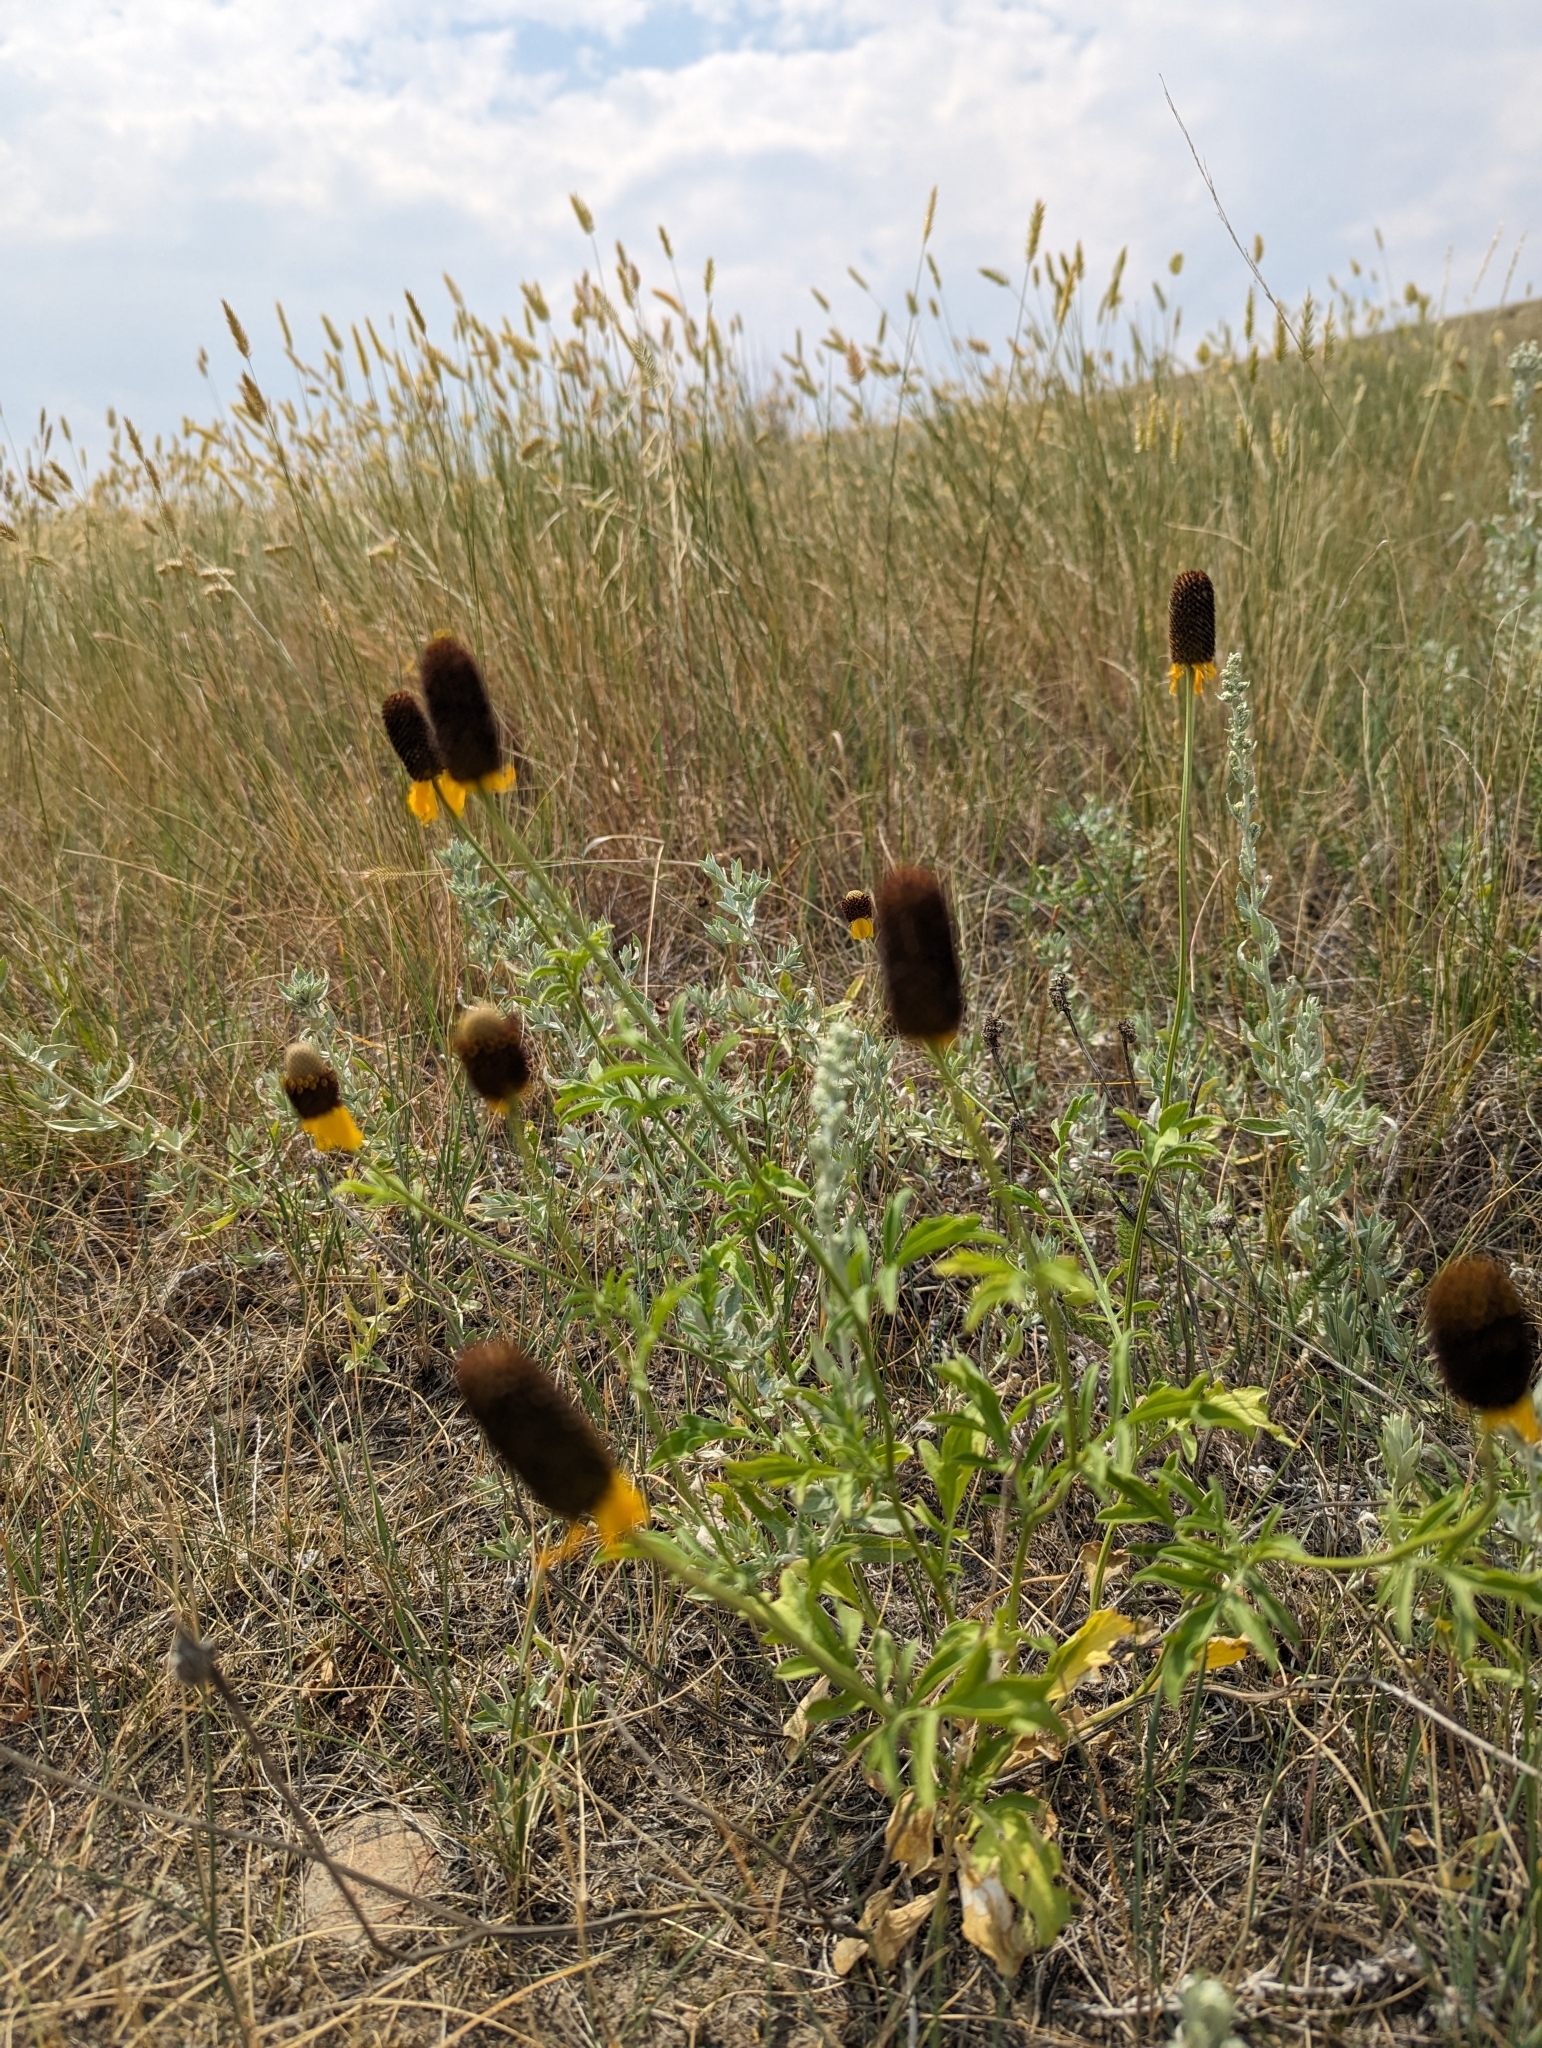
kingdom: Plantae
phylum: Tracheophyta
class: Magnoliopsida
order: Asterales
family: Asteraceae
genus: Ratibida
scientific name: Ratibida columnifera
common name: Prairie coneflower
